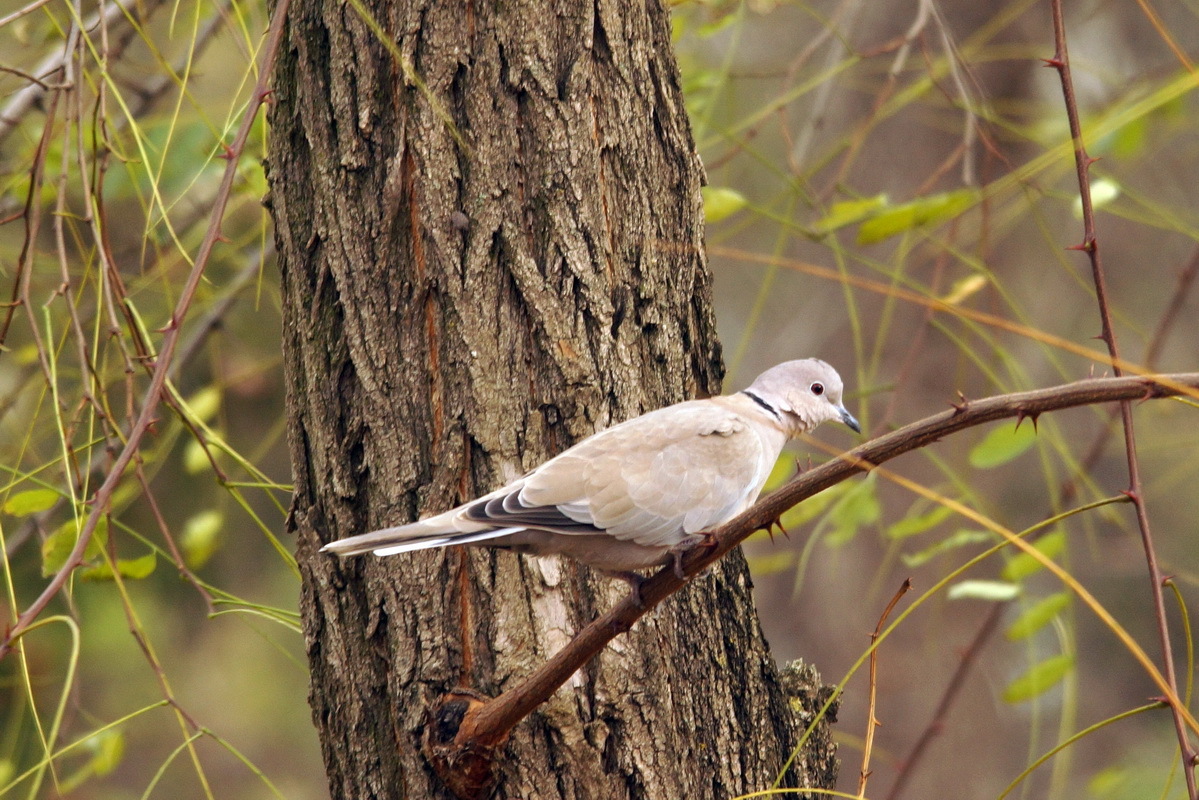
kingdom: Animalia
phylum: Chordata
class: Aves
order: Columbiformes
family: Columbidae
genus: Streptopelia
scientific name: Streptopelia decaocto
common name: Eurasian collared dove
